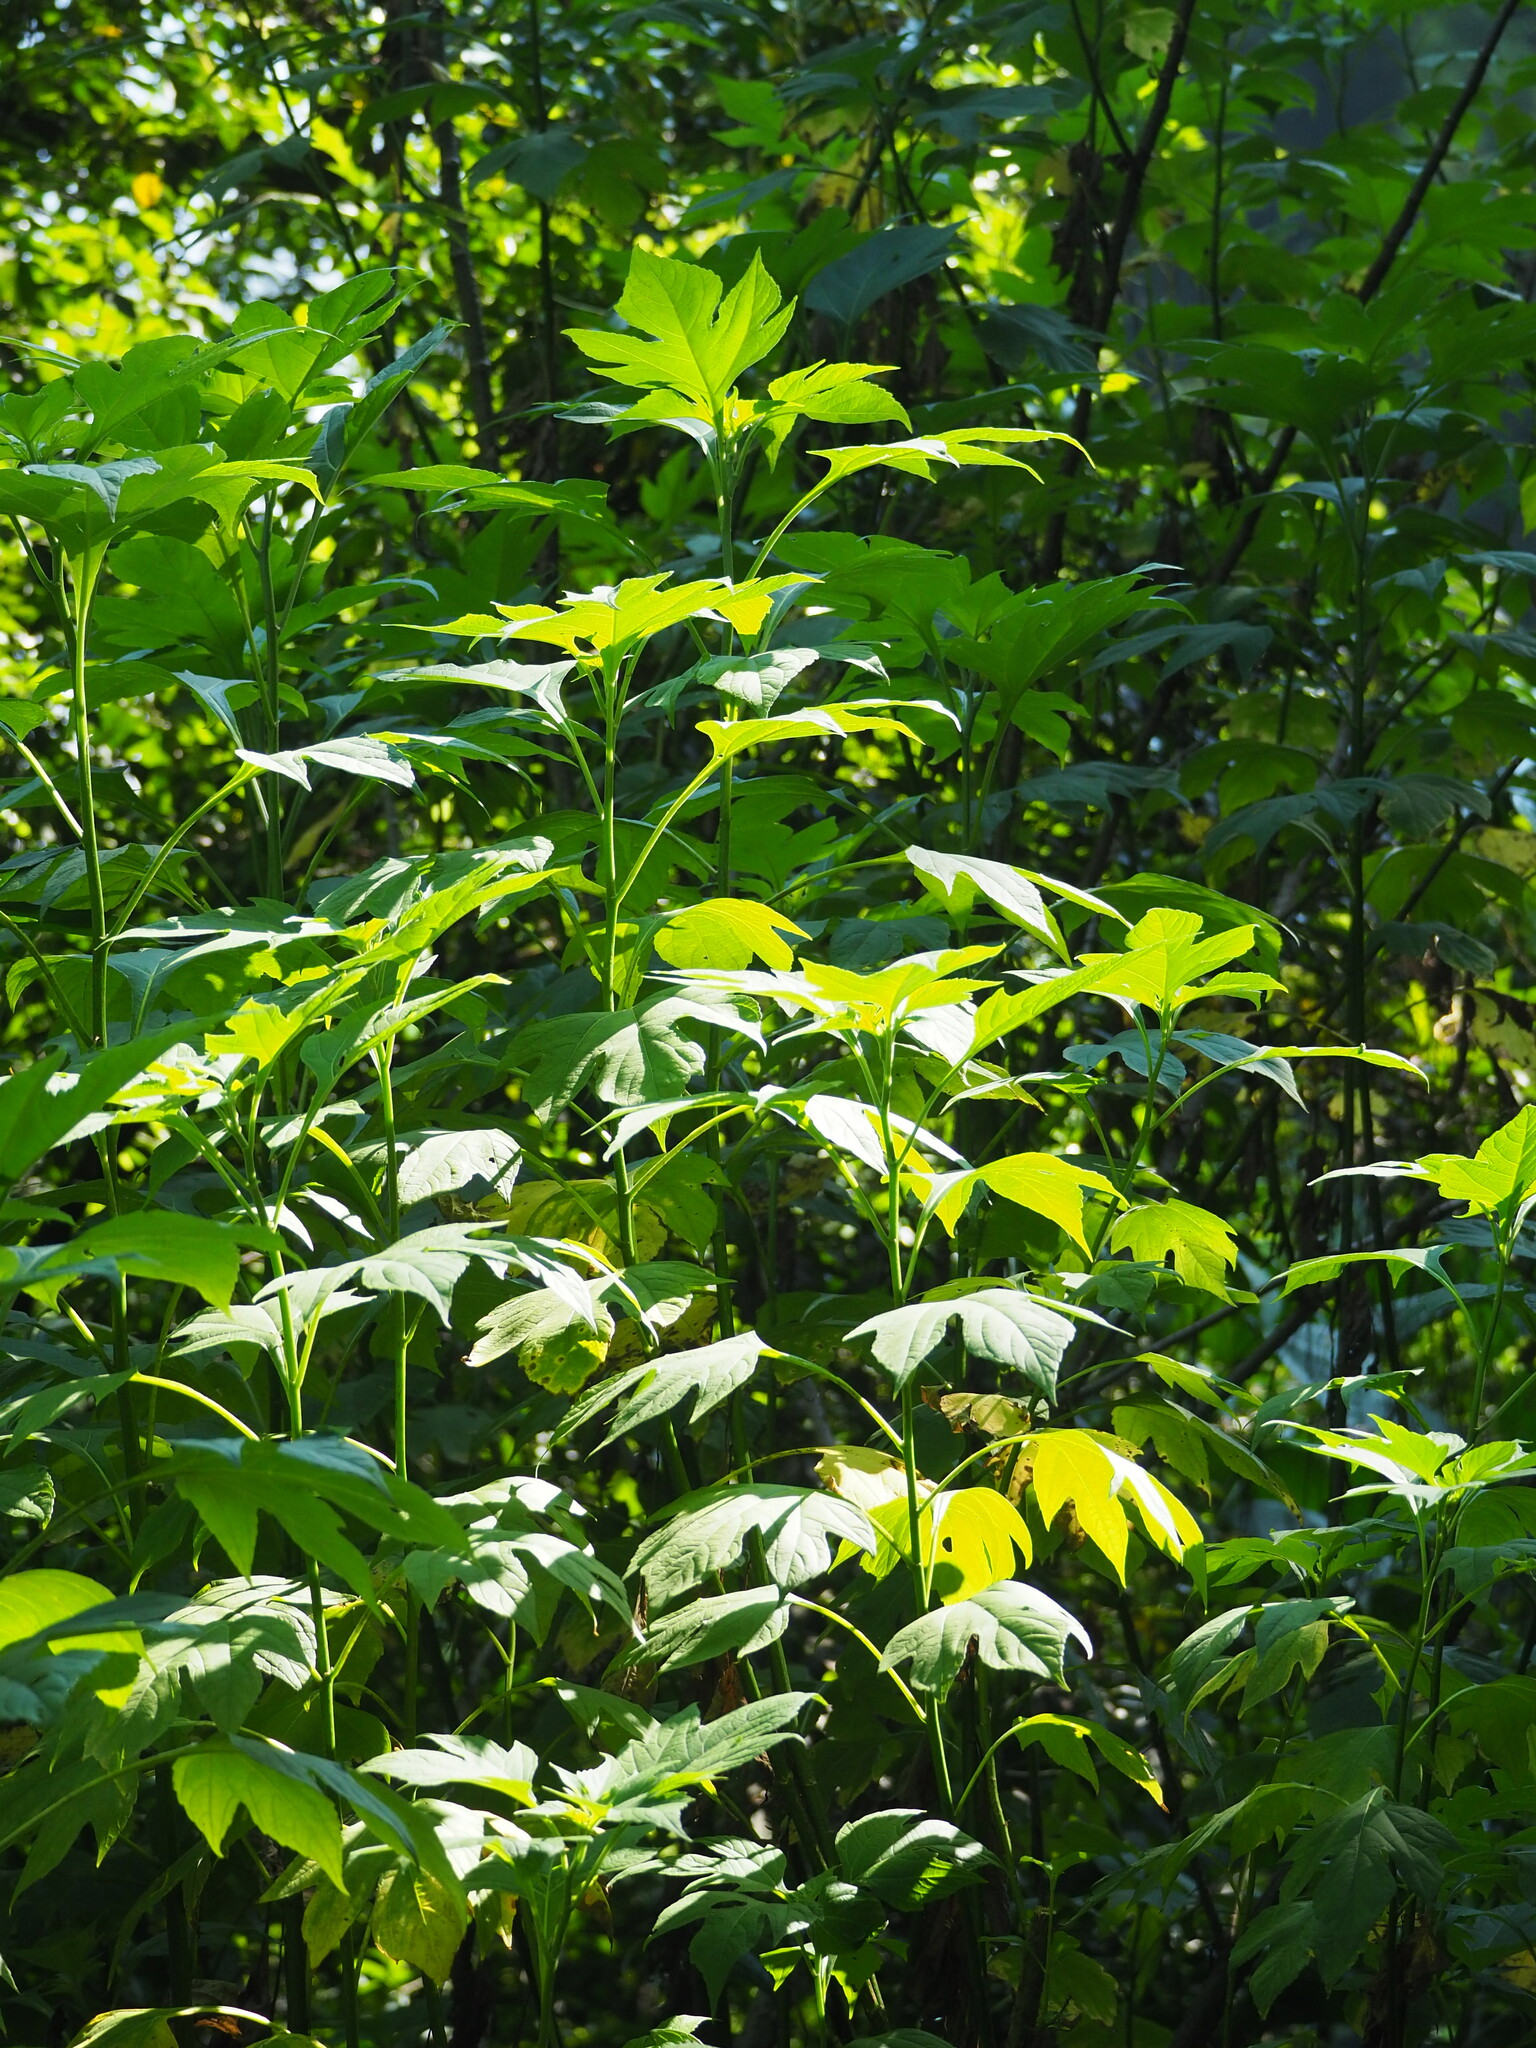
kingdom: Plantae
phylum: Tracheophyta
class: Magnoliopsida
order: Asterales
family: Asteraceae
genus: Tithonia
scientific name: Tithonia diversifolia
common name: Tree marigold
